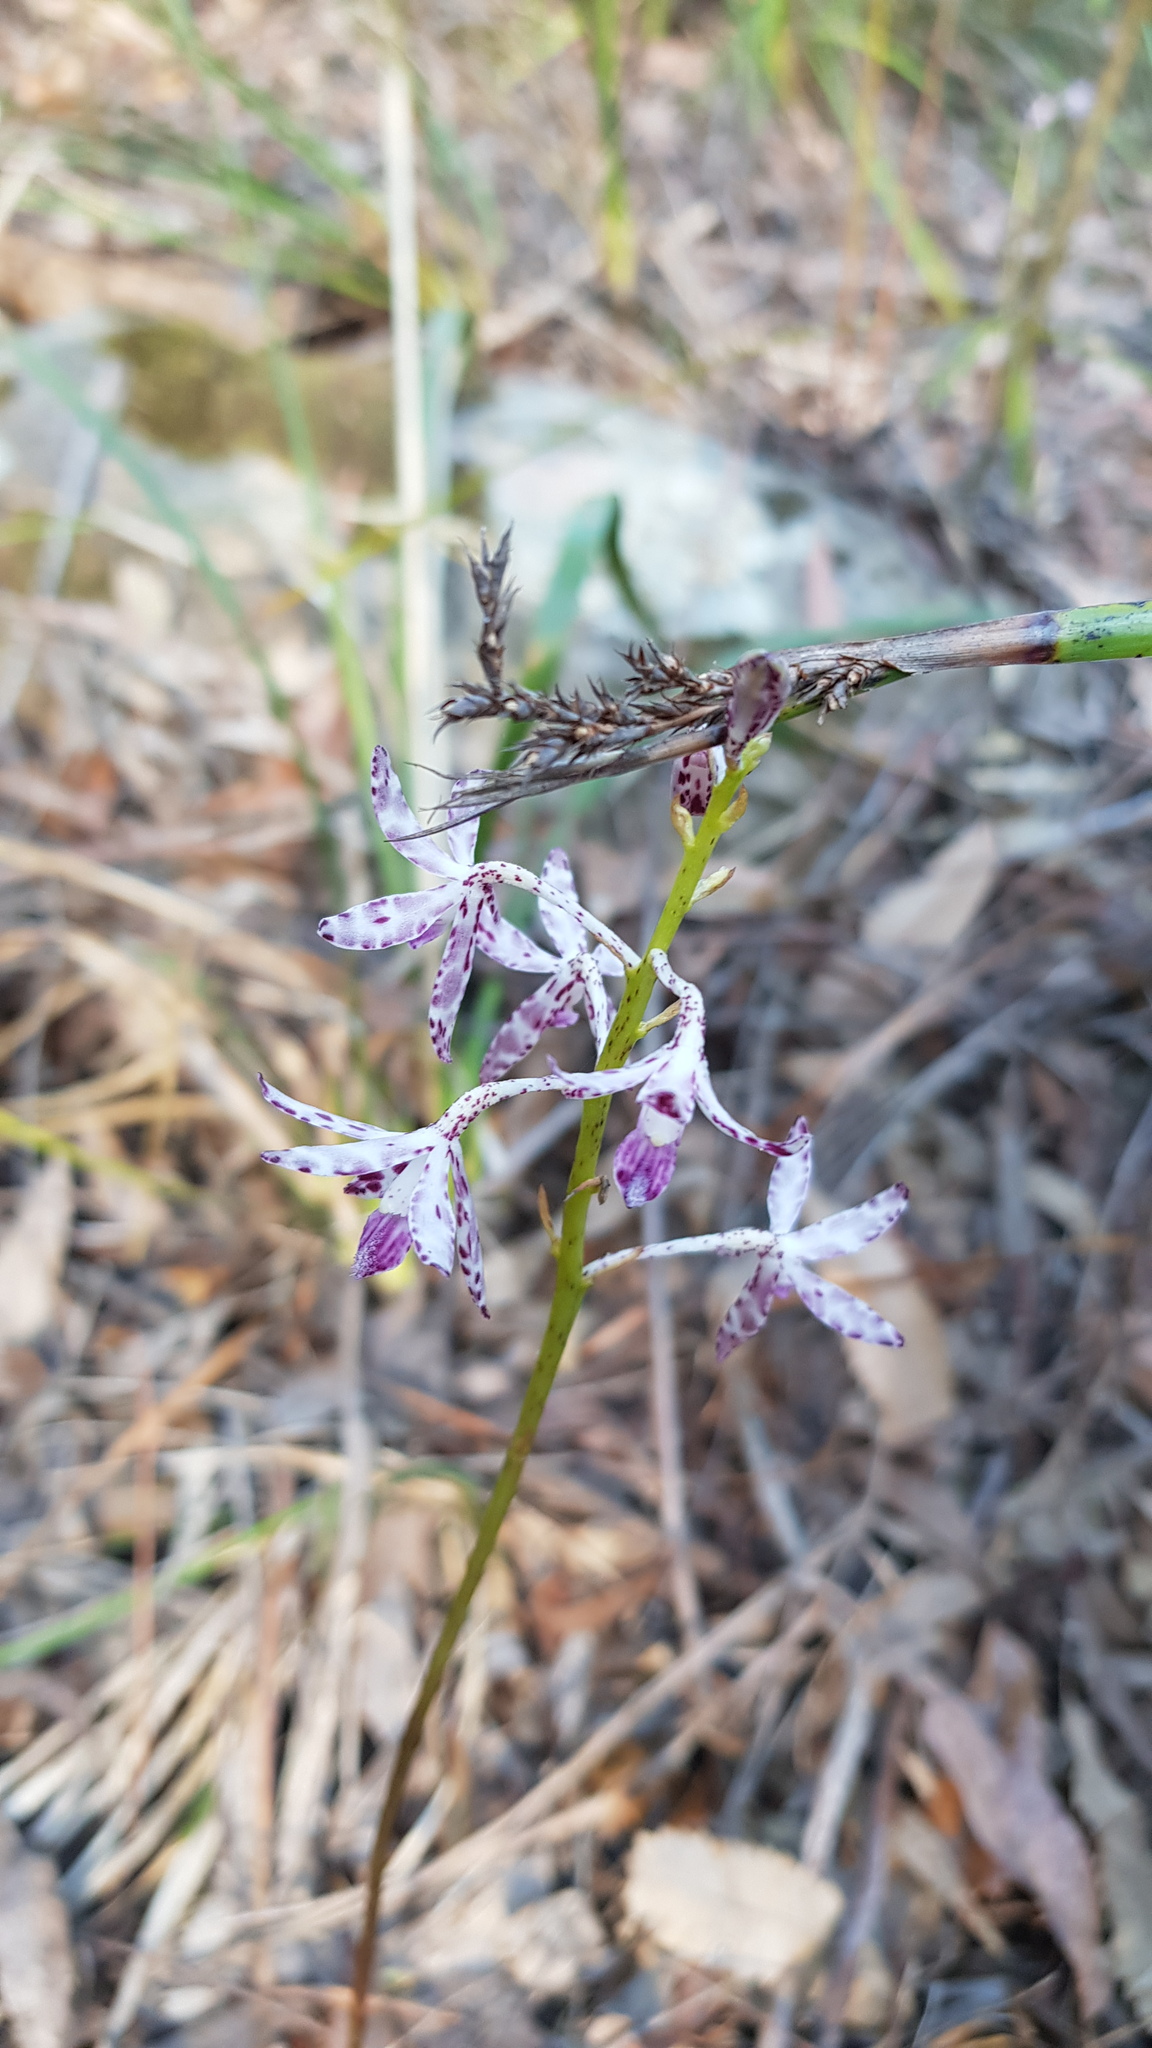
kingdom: Plantae
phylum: Tracheophyta
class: Liliopsida
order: Asparagales
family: Orchidaceae
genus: Dipodium
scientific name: Dipodium variegatum
